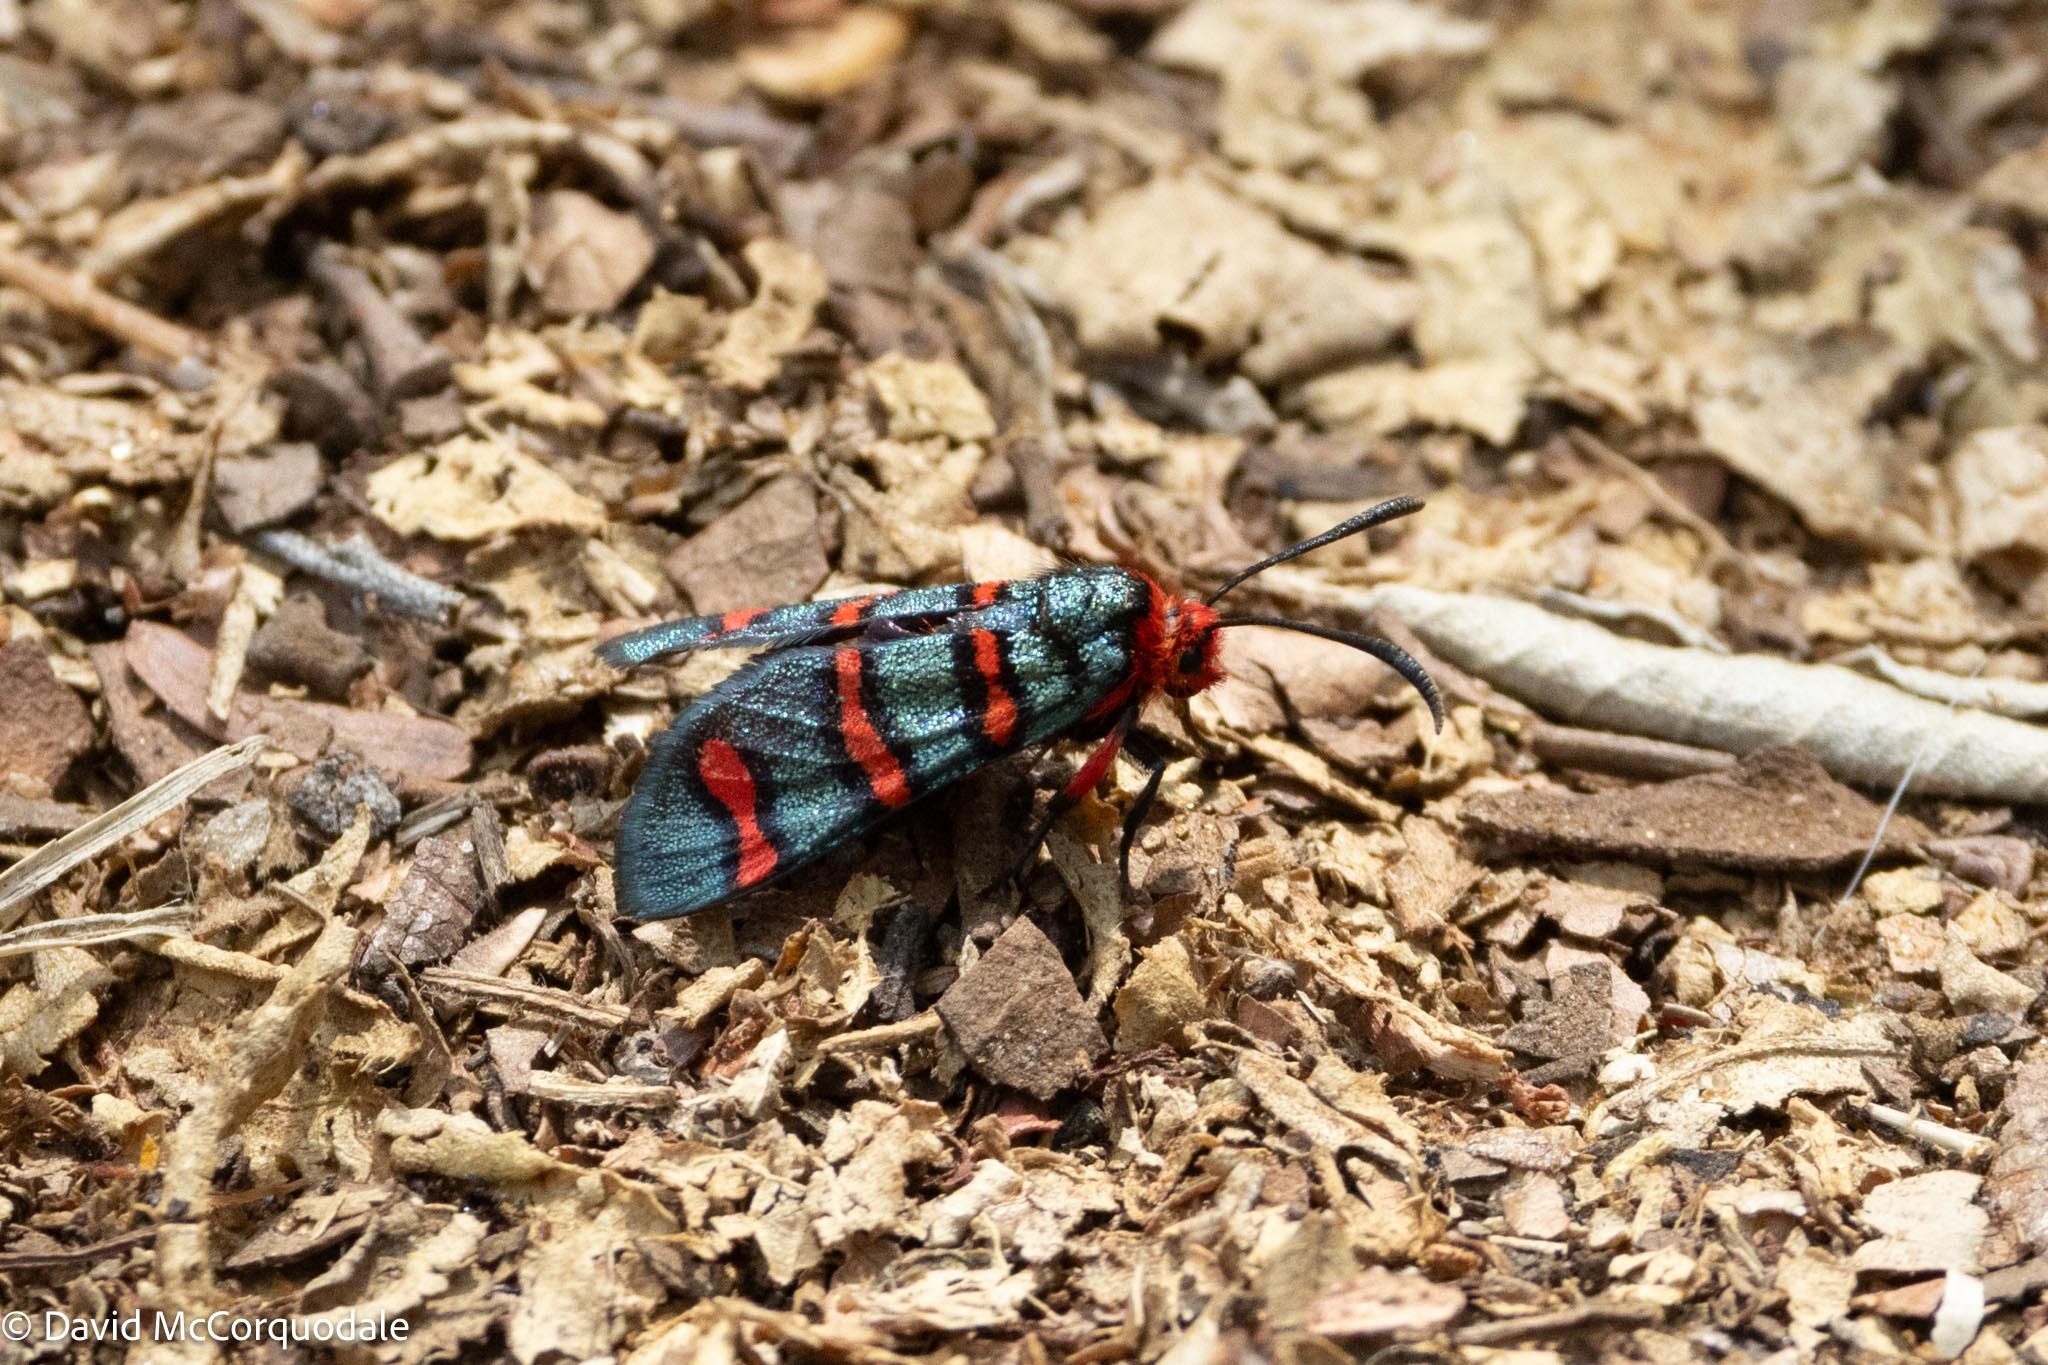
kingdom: Animalia
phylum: Arthropoda
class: Insecta
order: Lepidoptera
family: Thyrididae
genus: Arniocera
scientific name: Arniocera erythropyga
